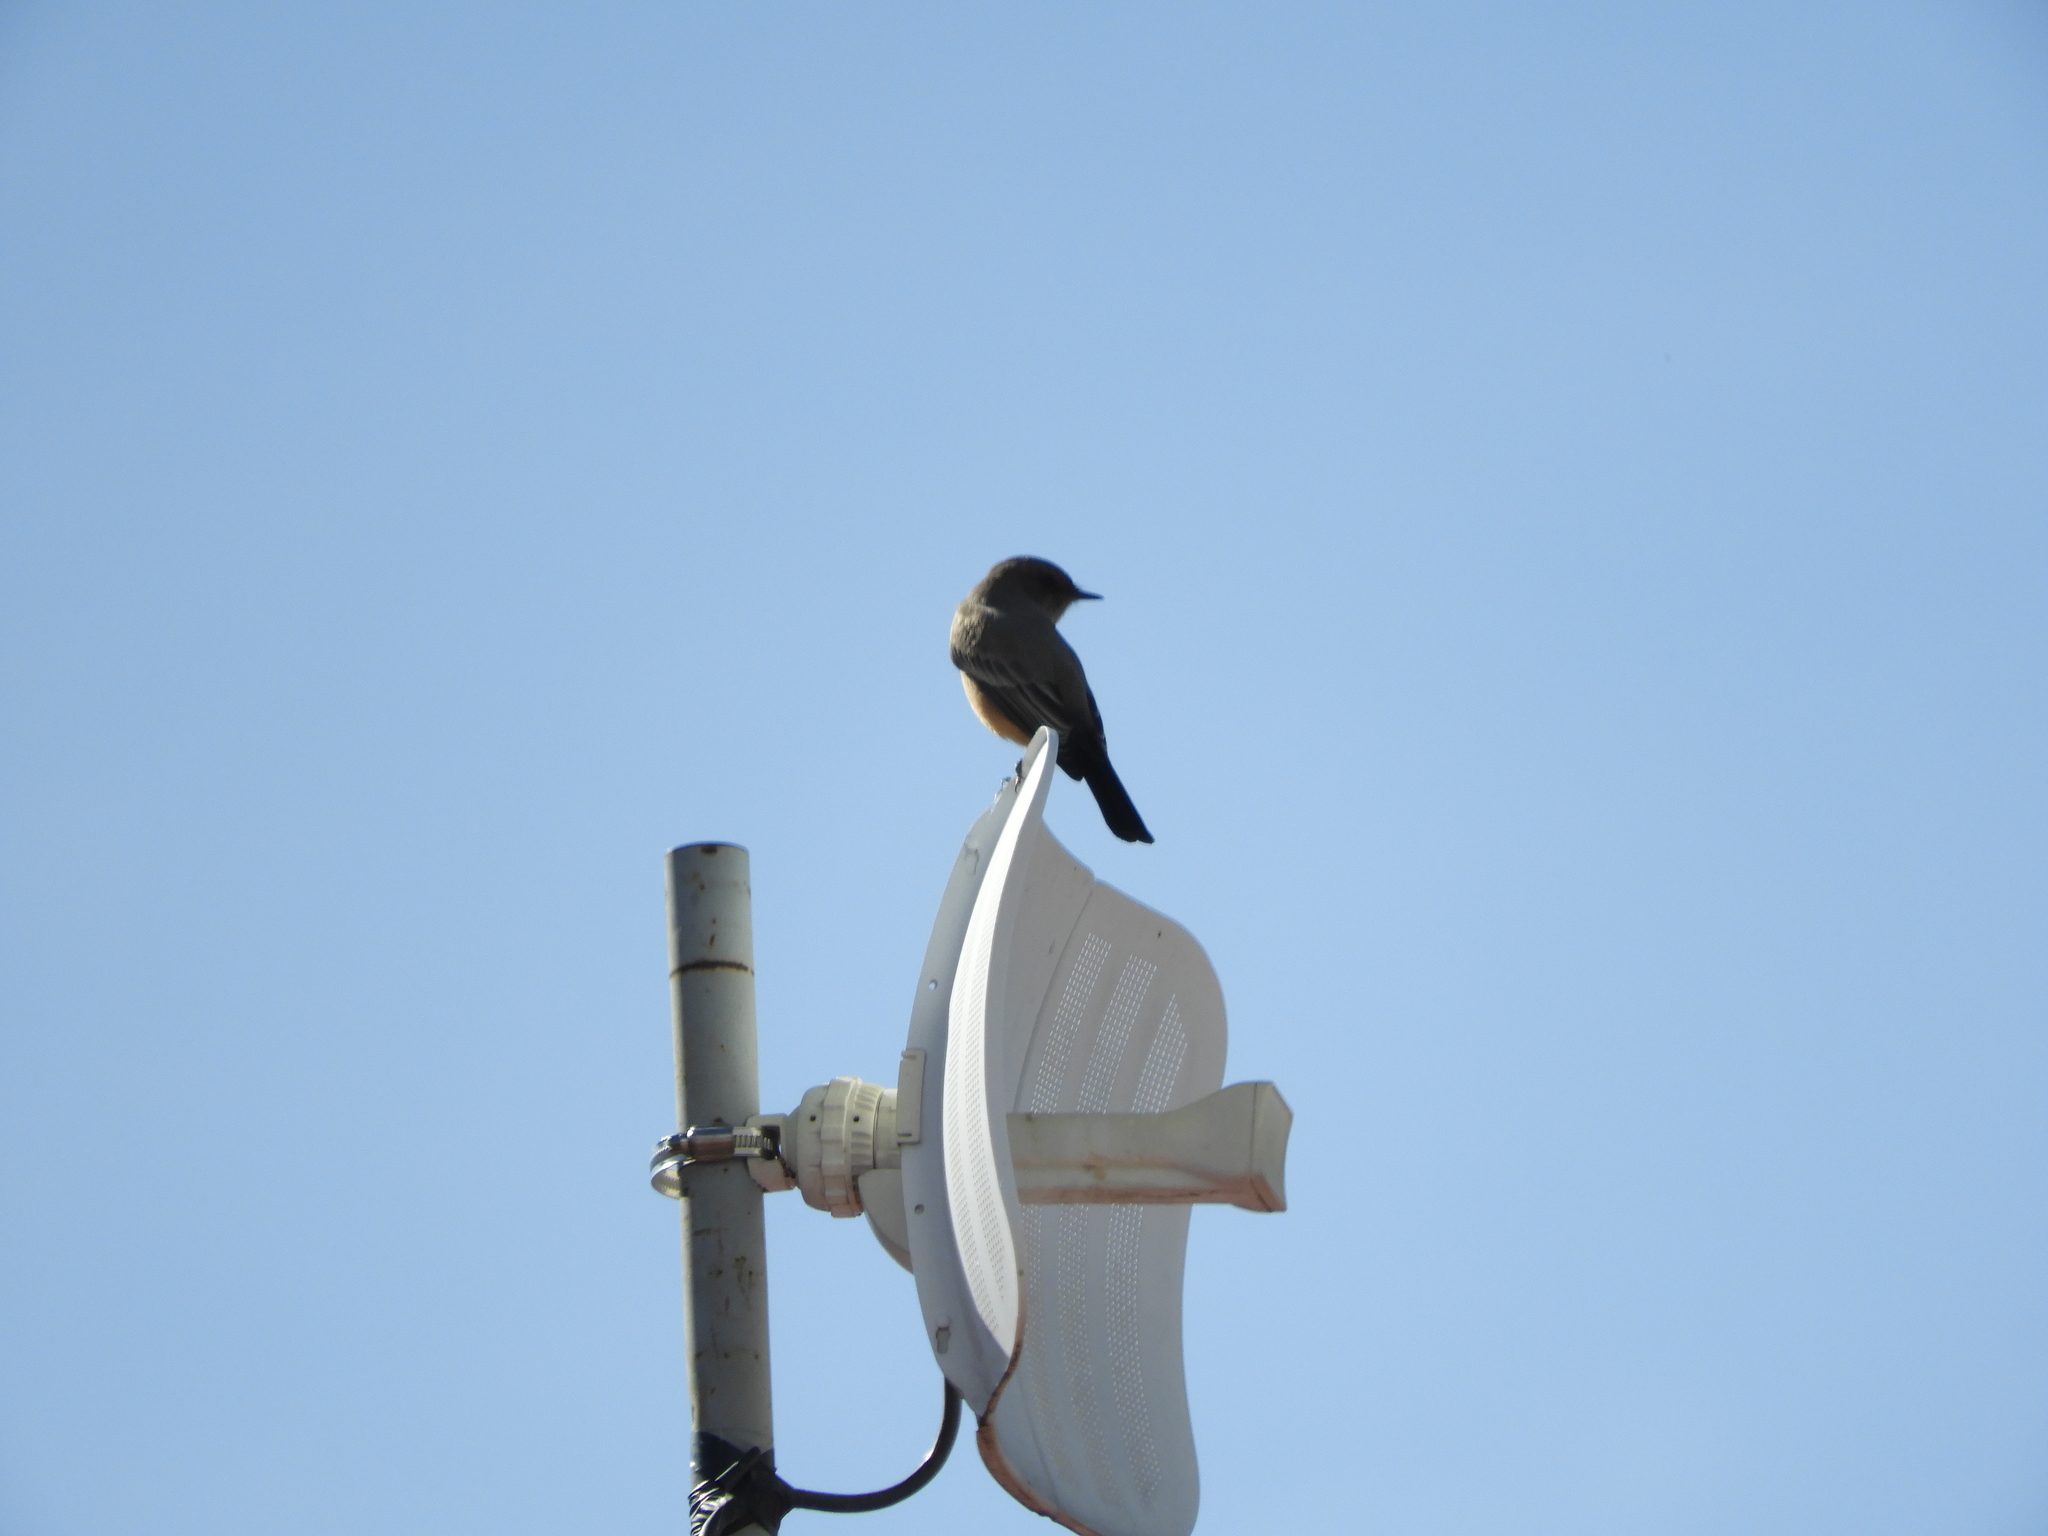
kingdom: Animalia
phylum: Chordata
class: Aves
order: Passeriformes
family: Tyrannidae
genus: Sayornis
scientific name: Sayornis saya
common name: Say's phoebe
